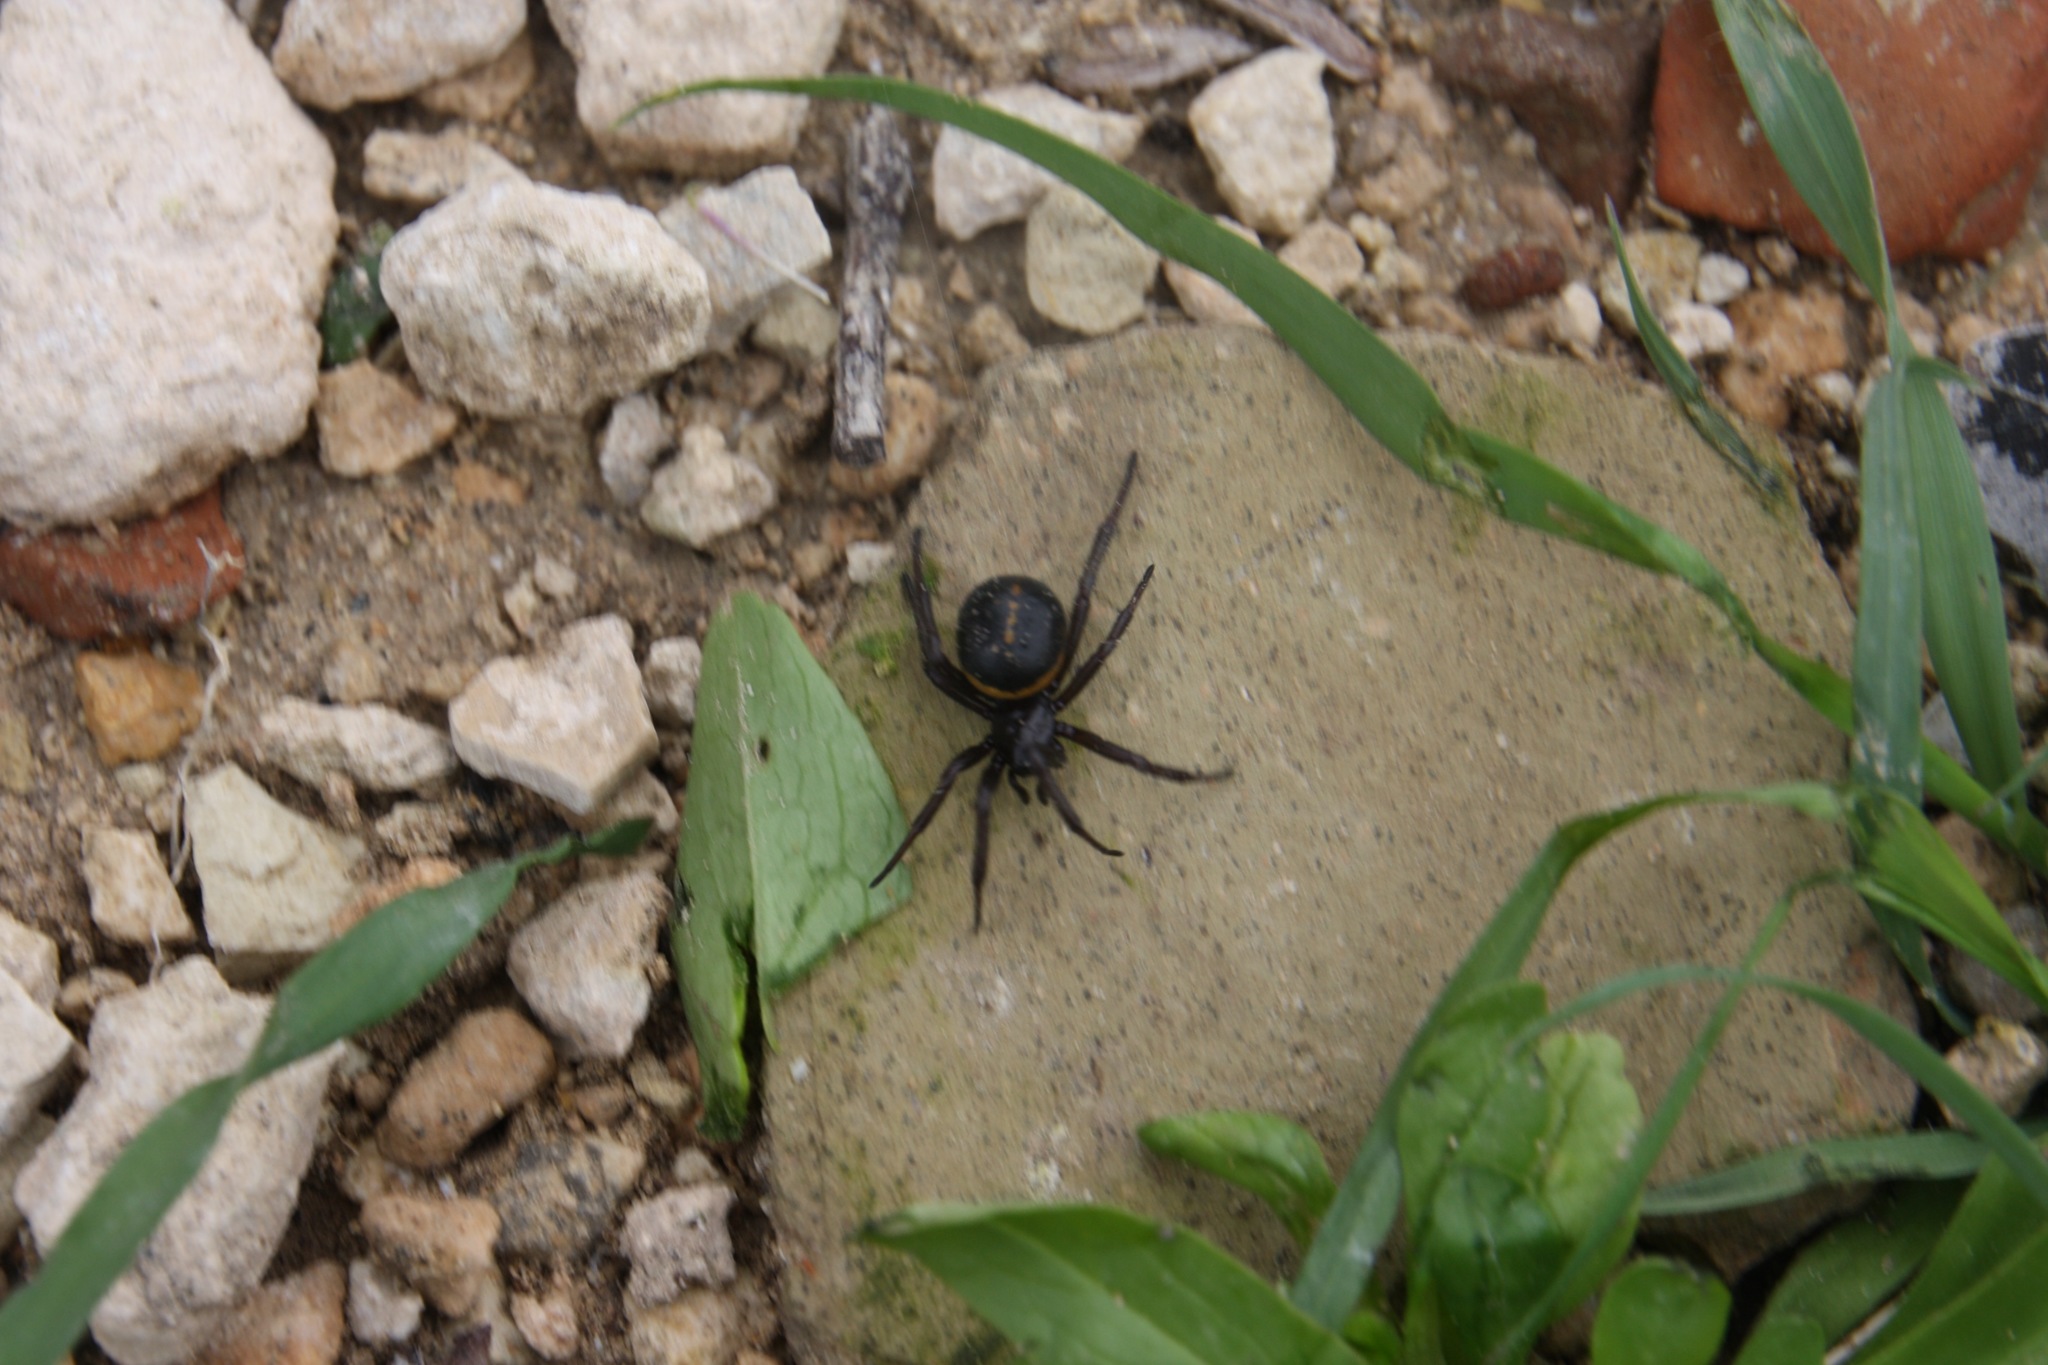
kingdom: Animalia
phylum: Arthropoda
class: Arachnida
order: Araneae
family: Theridiidae
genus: Steatoda
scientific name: Steatoda paykulliana
